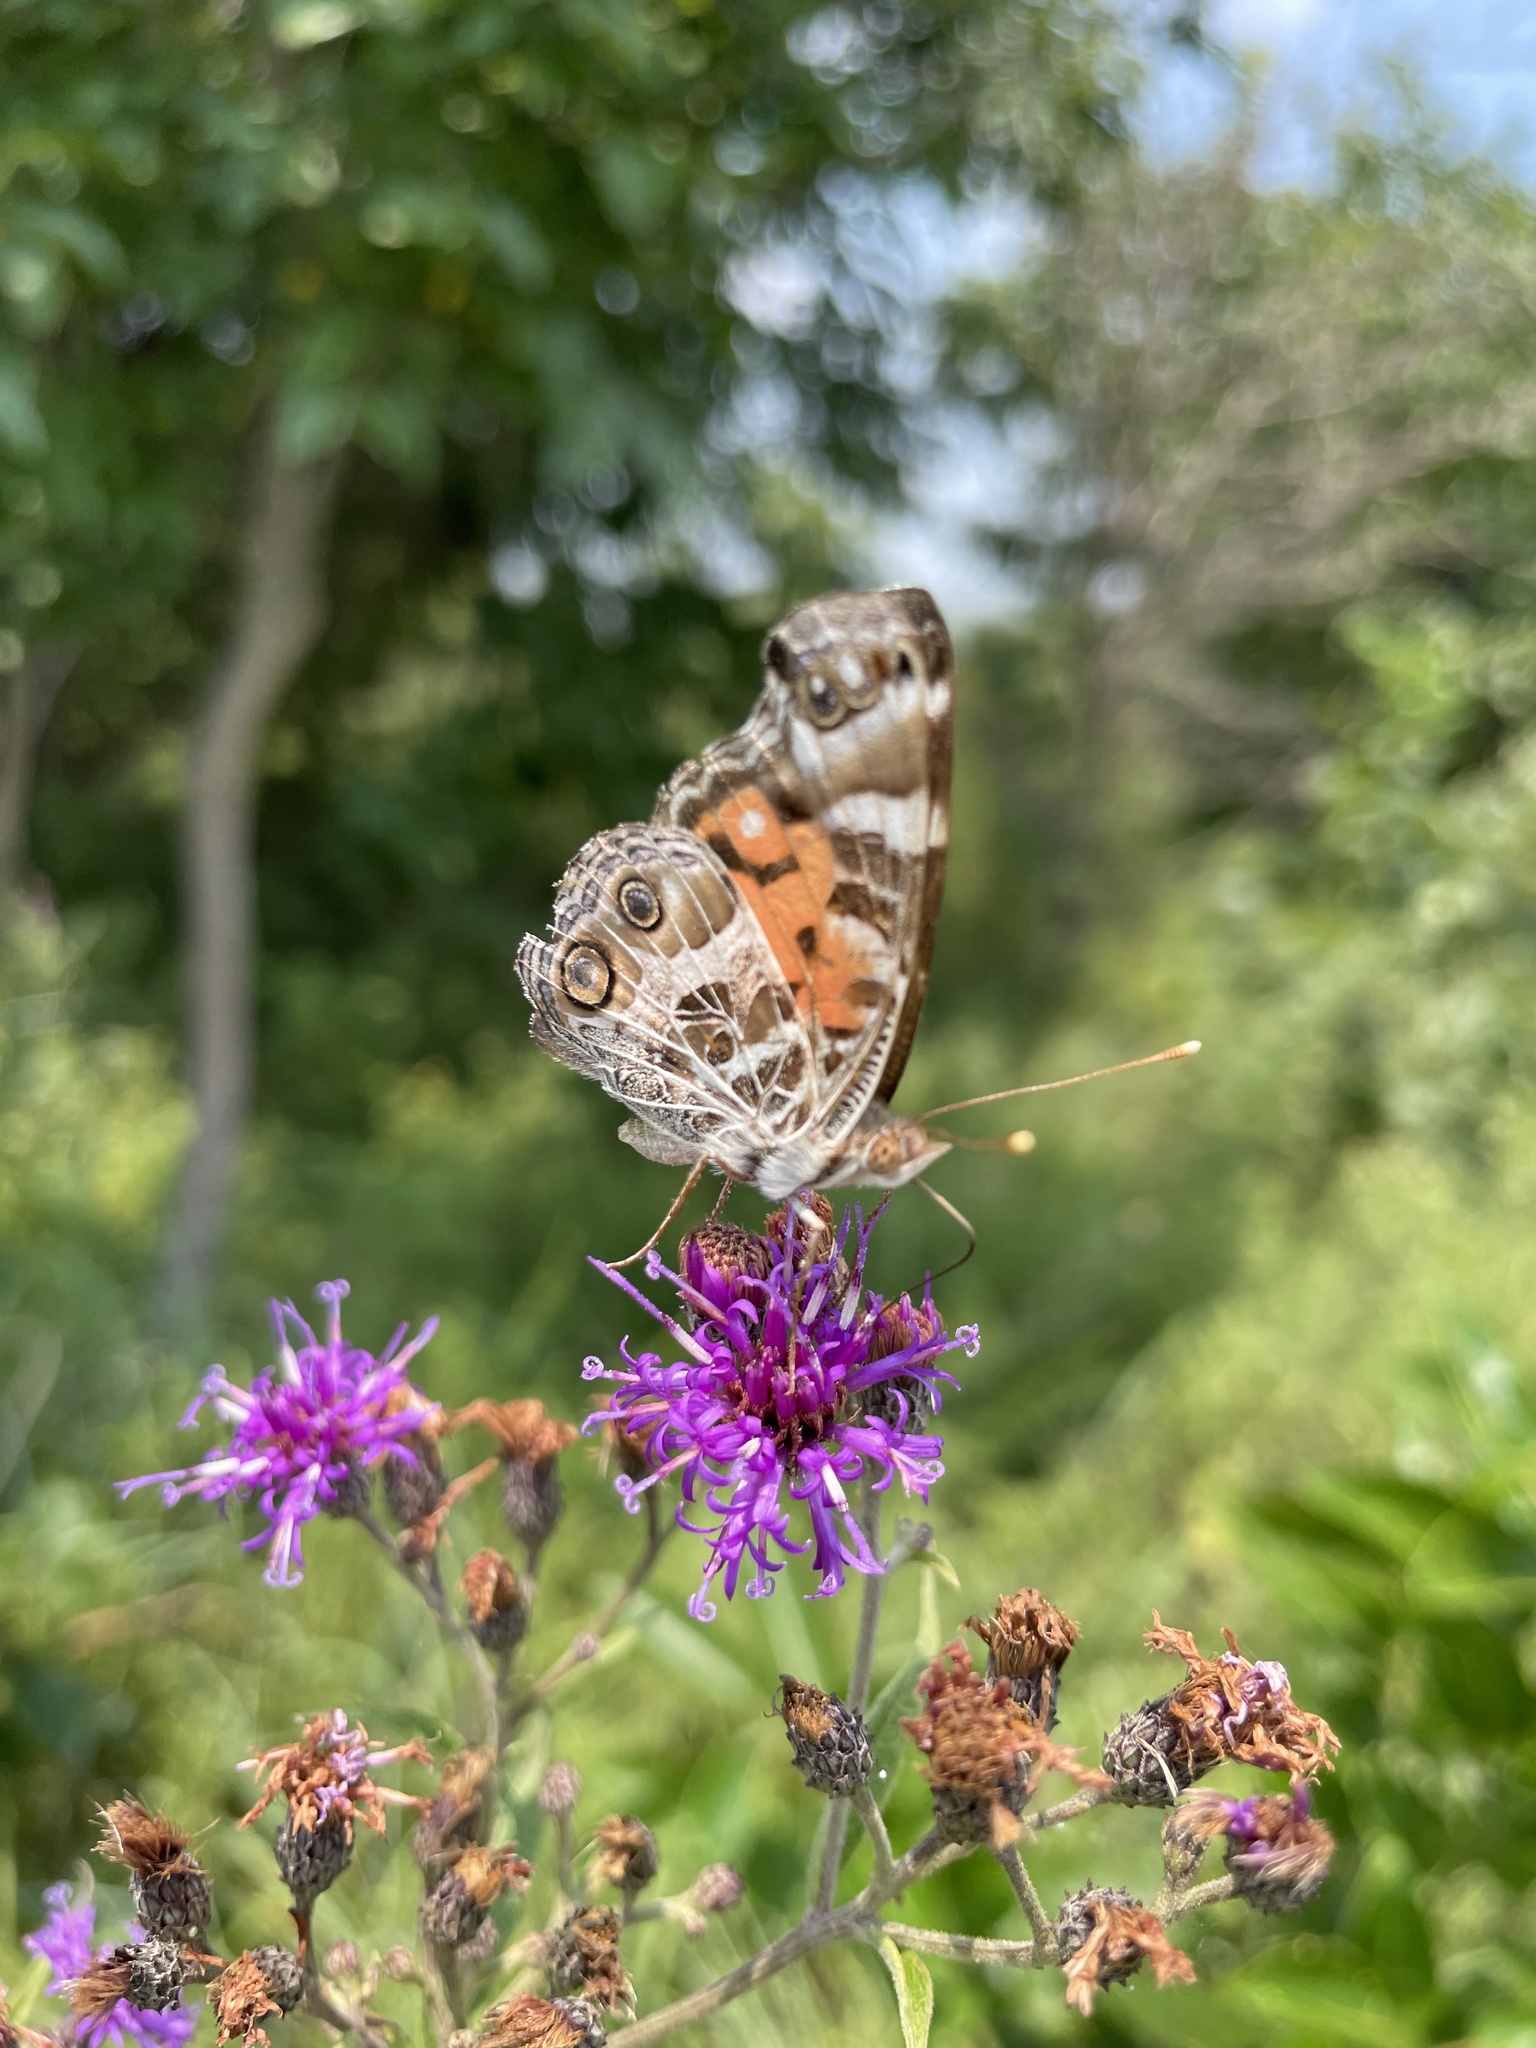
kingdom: Animalia
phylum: Arthropoda
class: Insecta
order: Lepidoptera
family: Nymphalidae
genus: Vanessa
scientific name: Vanessa virginiensis
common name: American lady
